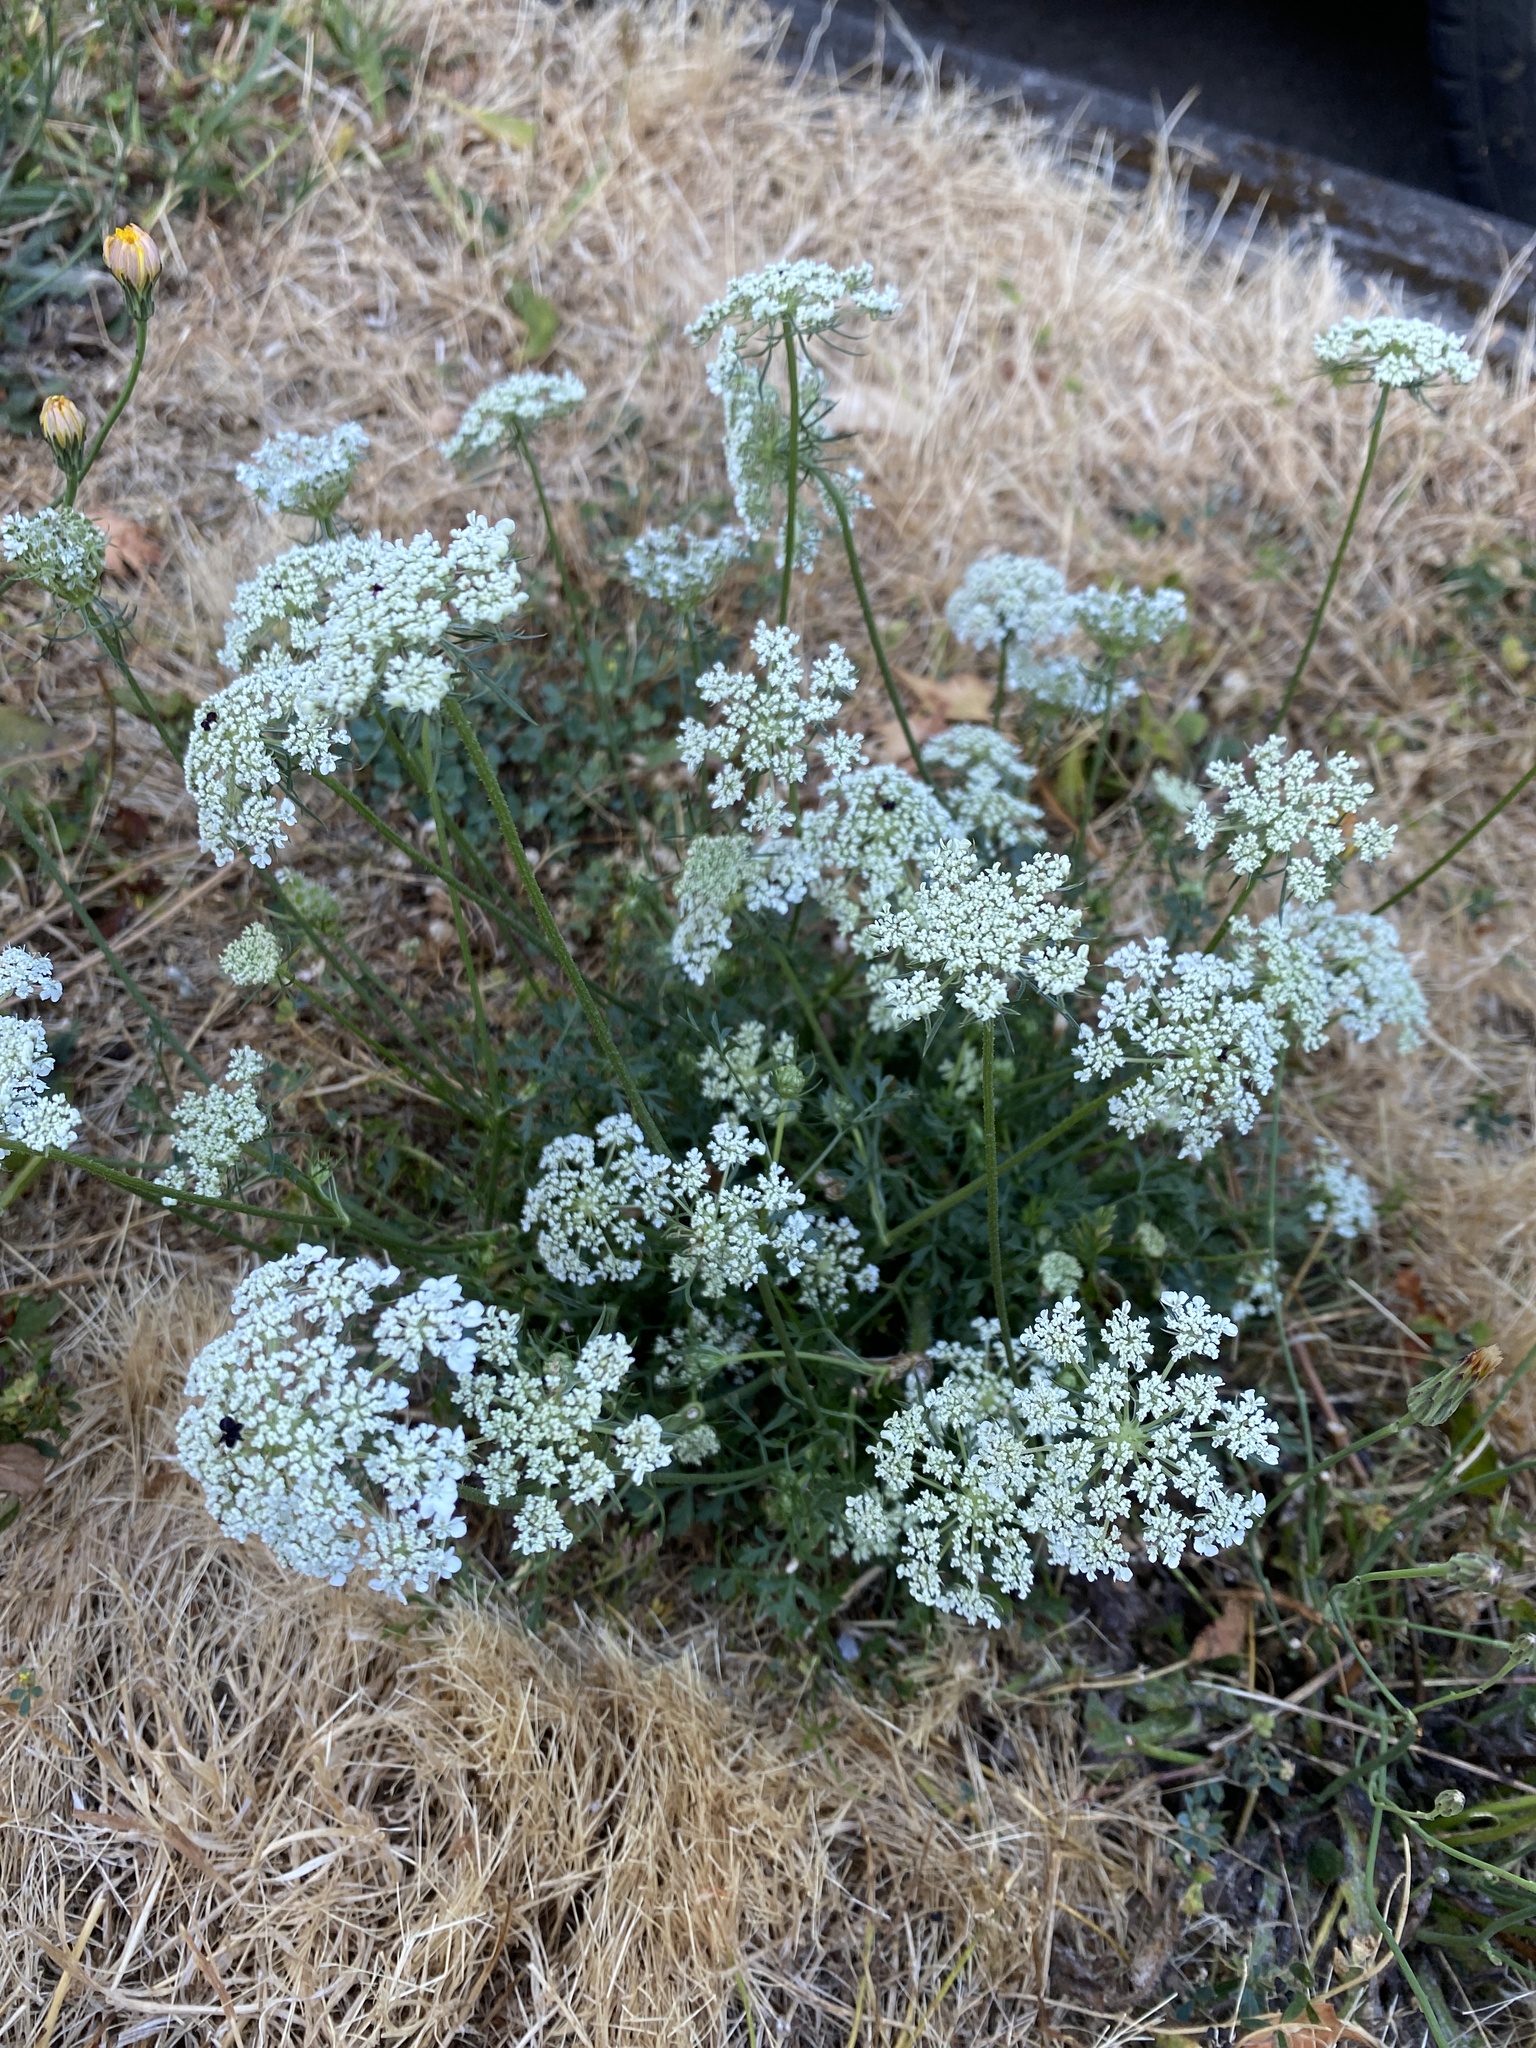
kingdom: Plantae
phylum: Tracheophyta
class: Magnoliopsida
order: Apiales
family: Apiaceae
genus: Daucus
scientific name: Daucus carota
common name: Wild carrot
